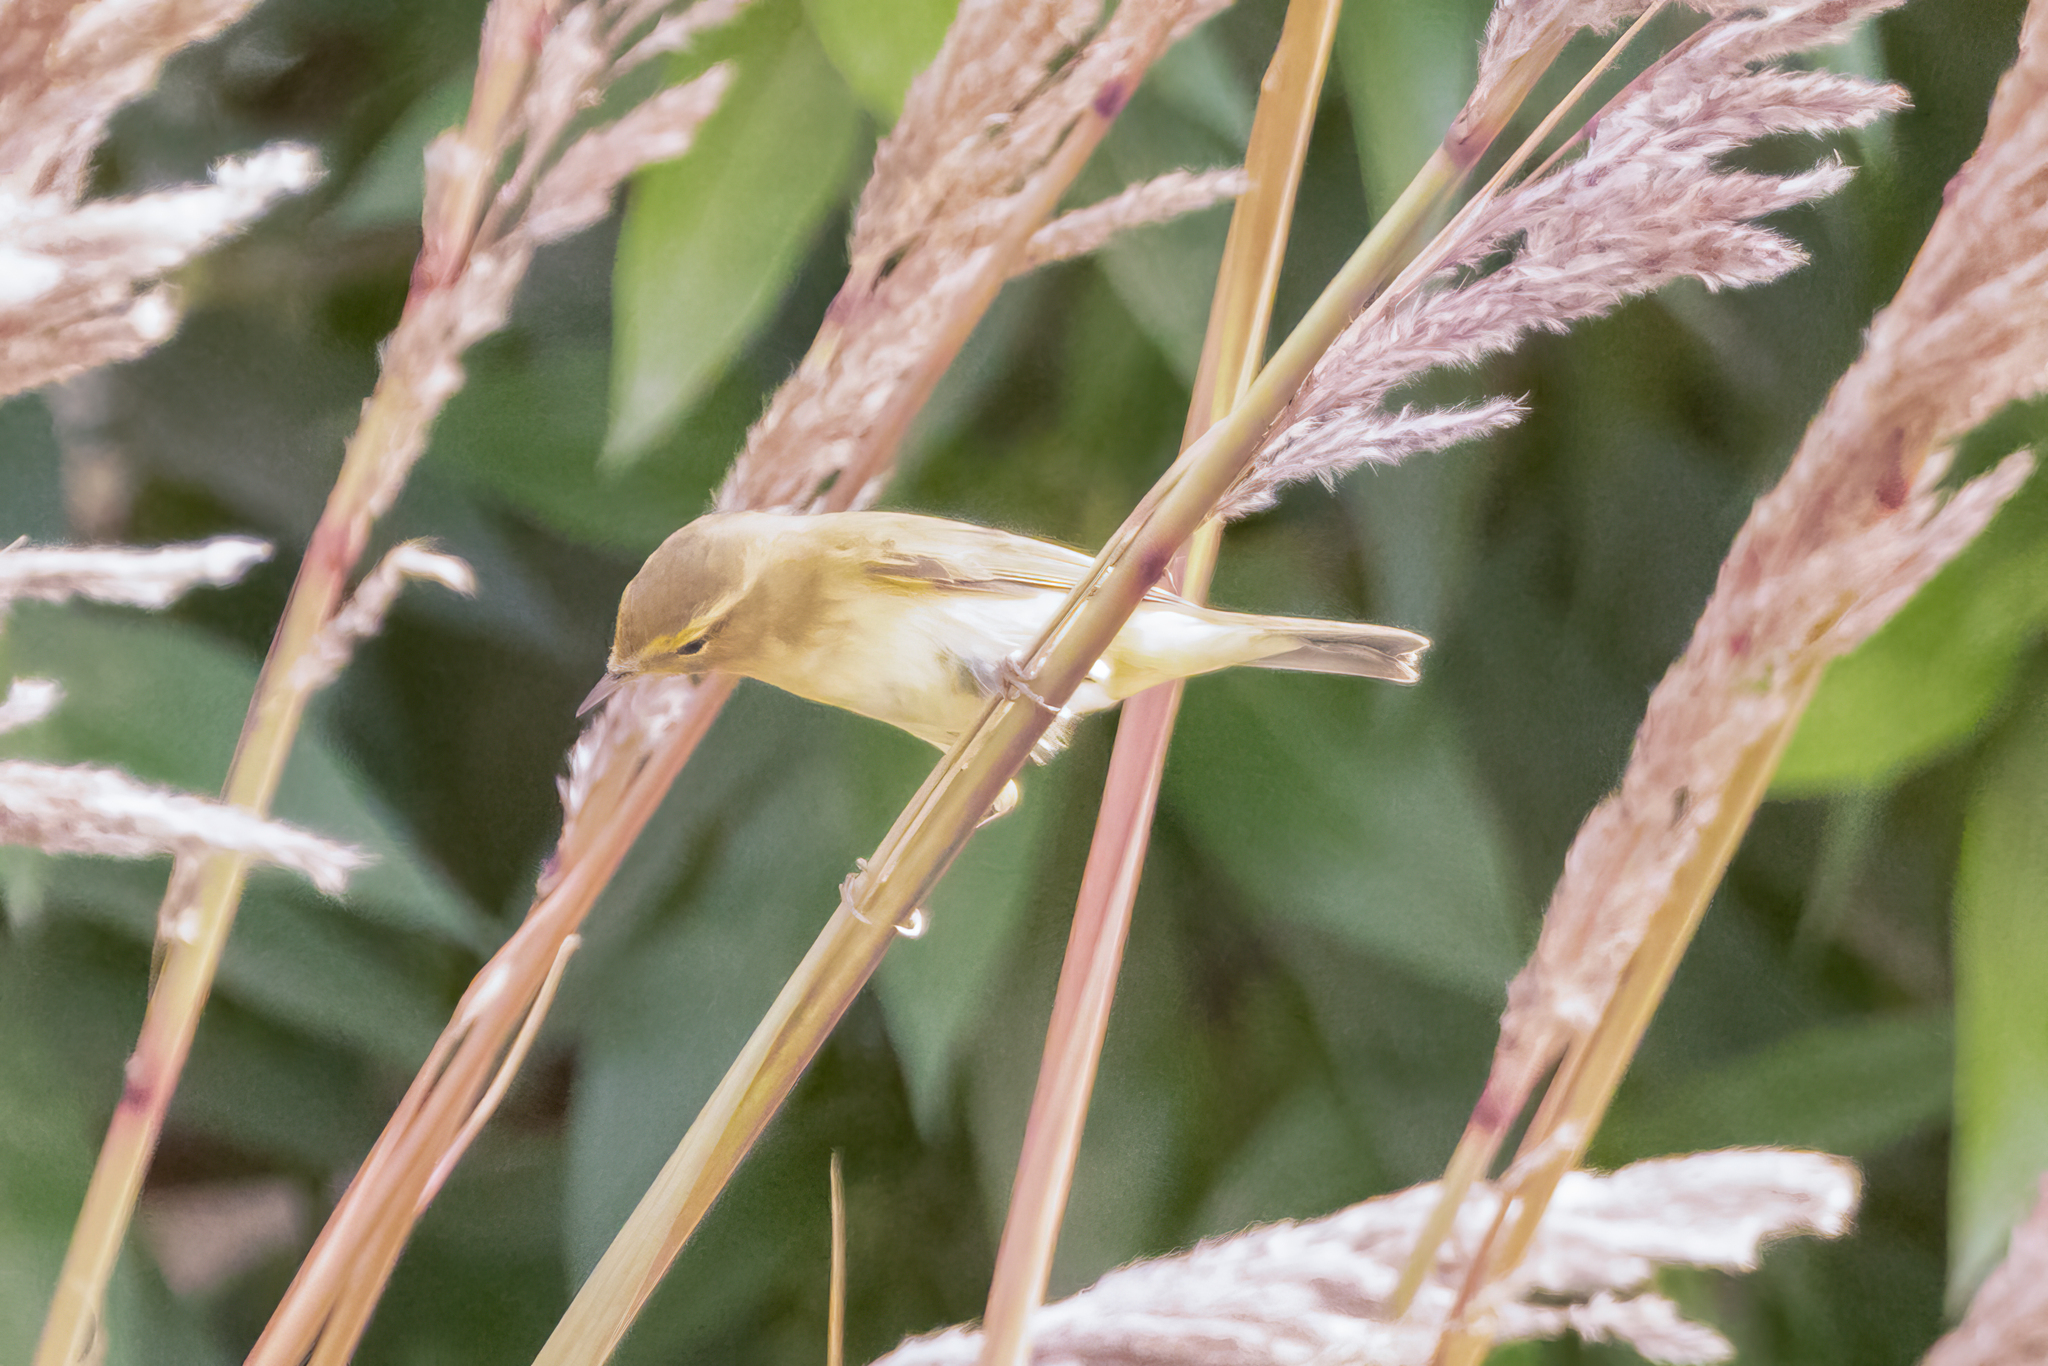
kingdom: Animalia
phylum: Chordata
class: Aves
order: Passeriformes
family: Phylloscopidae
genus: Phylloscopus
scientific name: Phylloscopus trochilus
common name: Willow warbler
